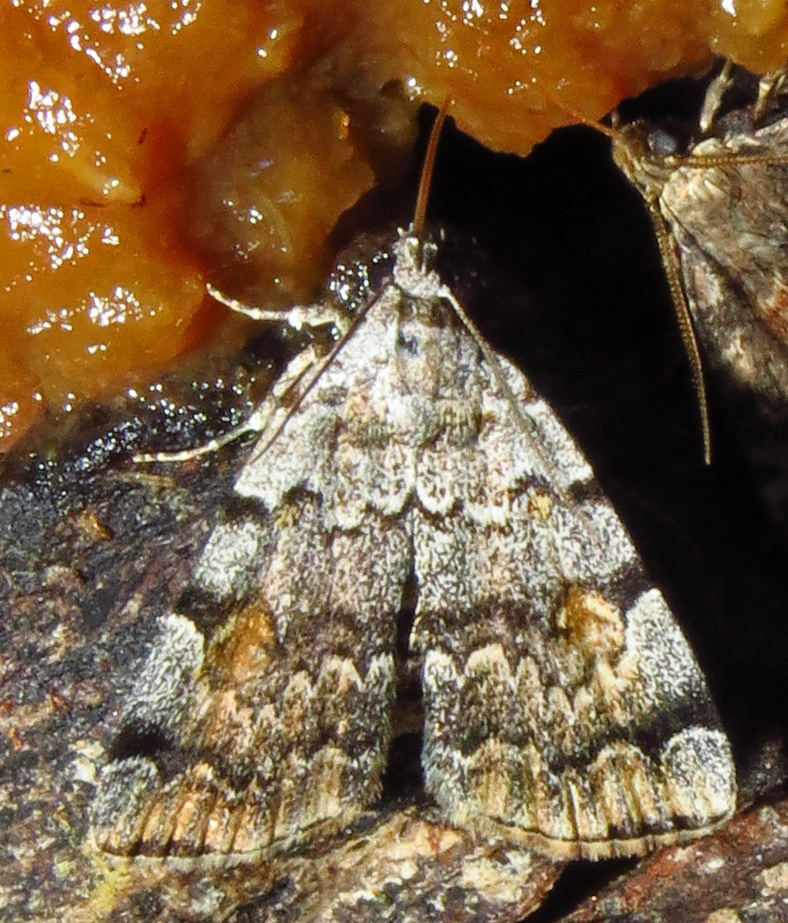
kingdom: Animalia
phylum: Arthropoda
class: Insecta
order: Lepidoptera
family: Erebidae
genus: Idia
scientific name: Idia americalis
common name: American idia moth
